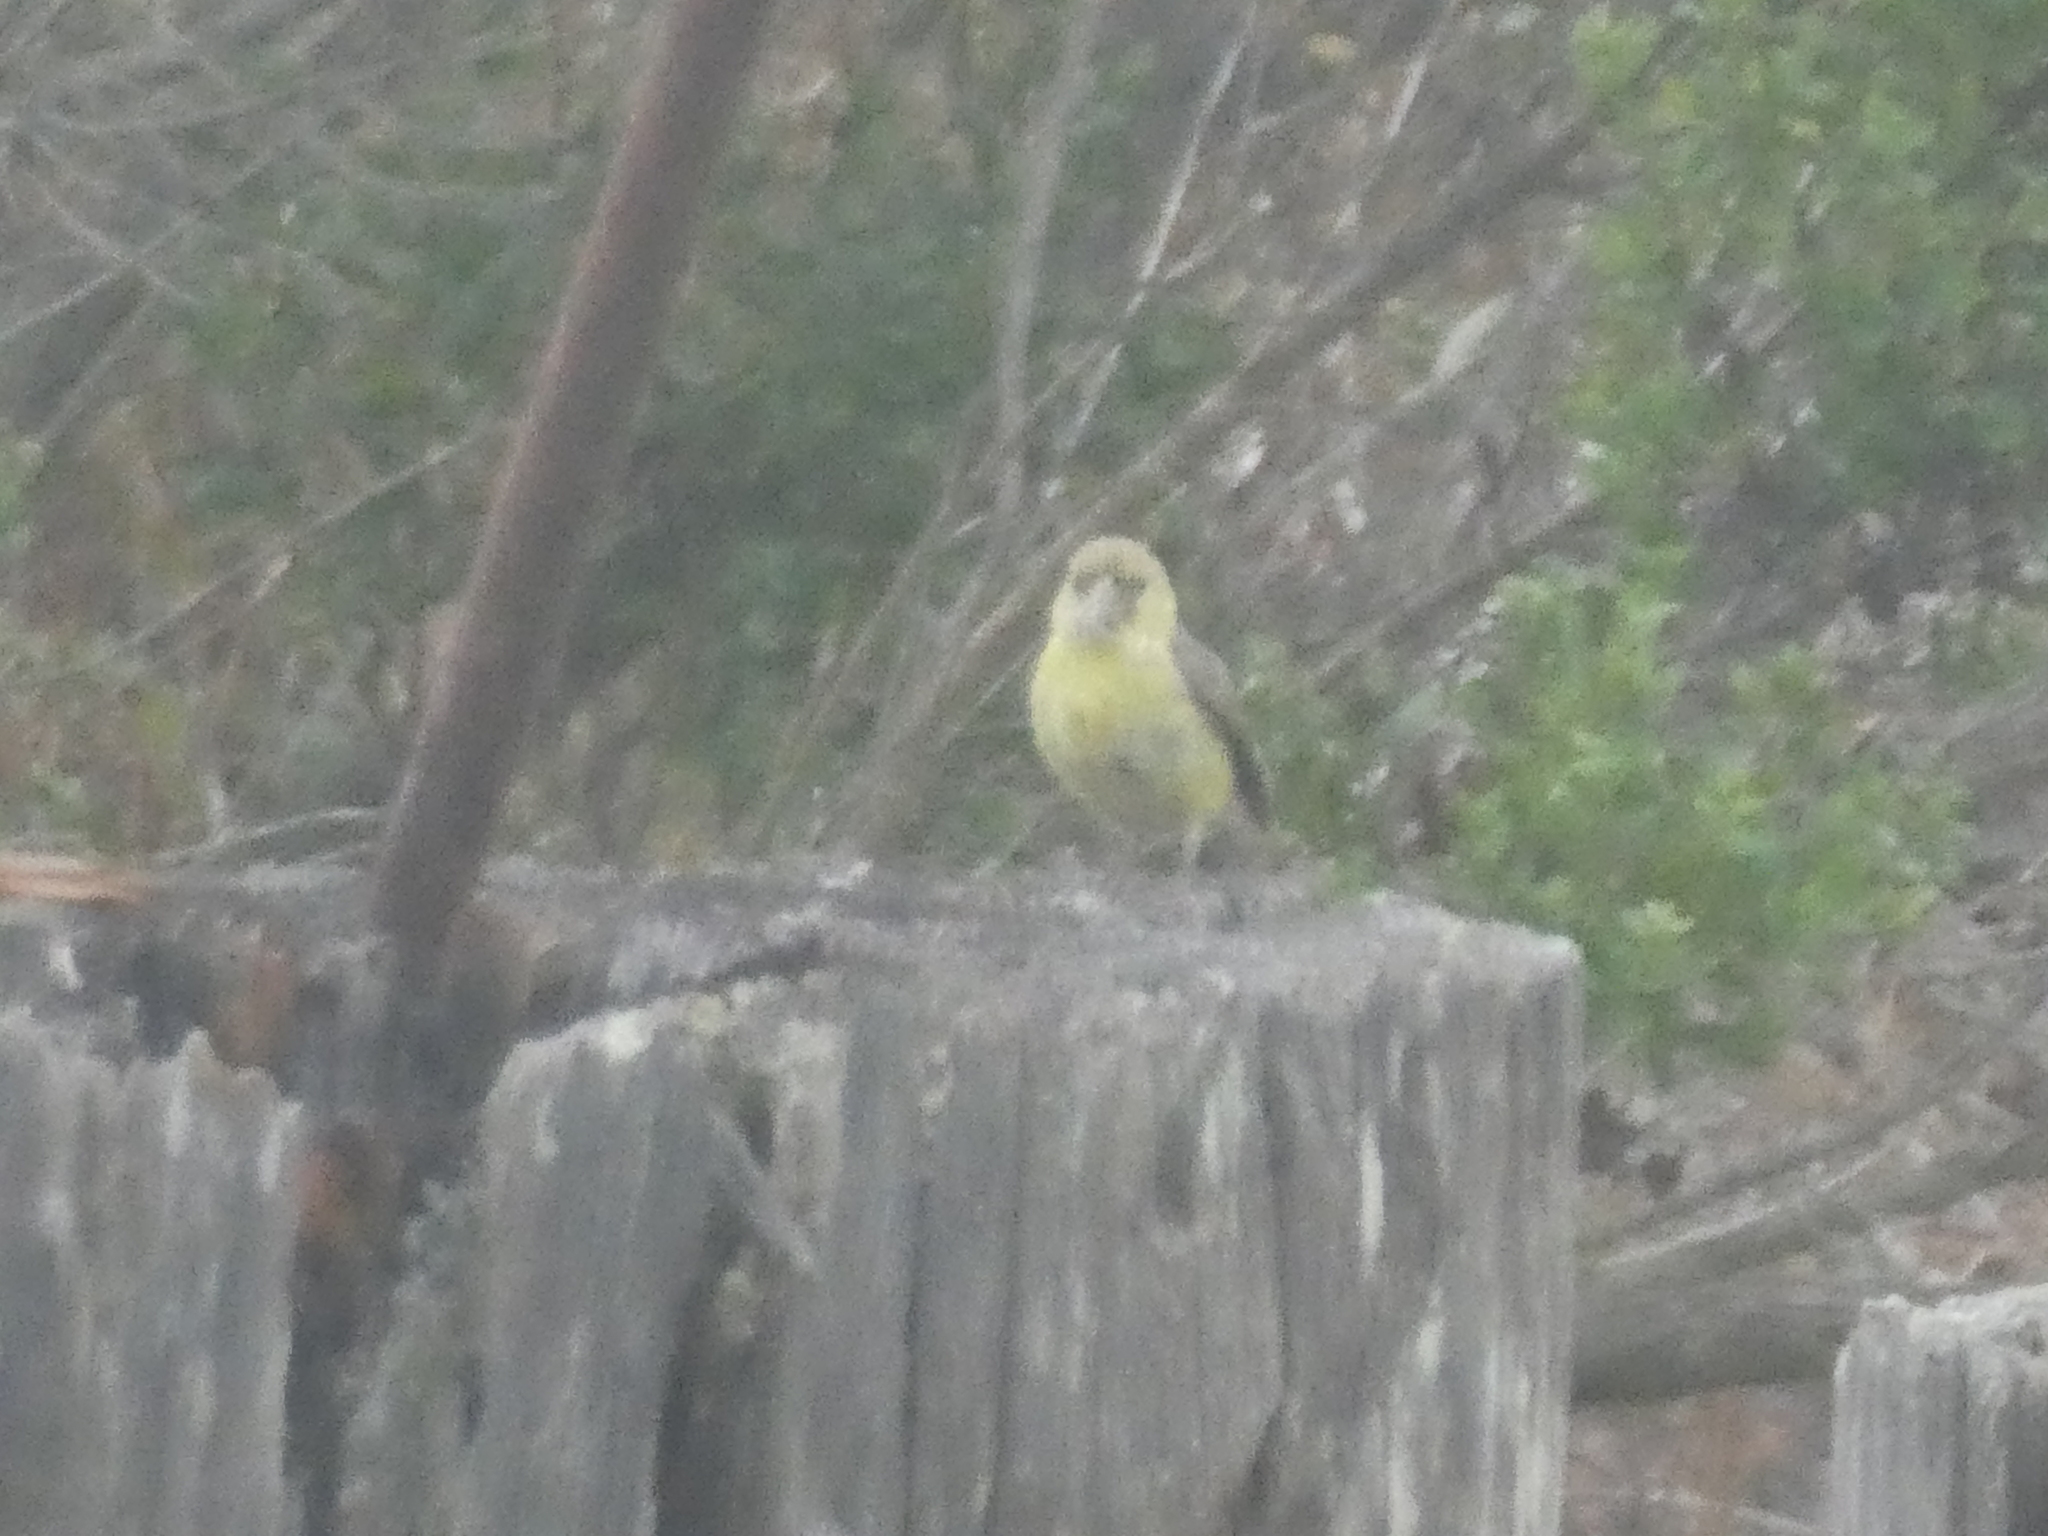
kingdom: Animalia
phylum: Chordata
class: Aves
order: Passeriformes
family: Fringillidae
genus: Spinus
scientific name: Spinus psaltria
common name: Lesser goldfinch
